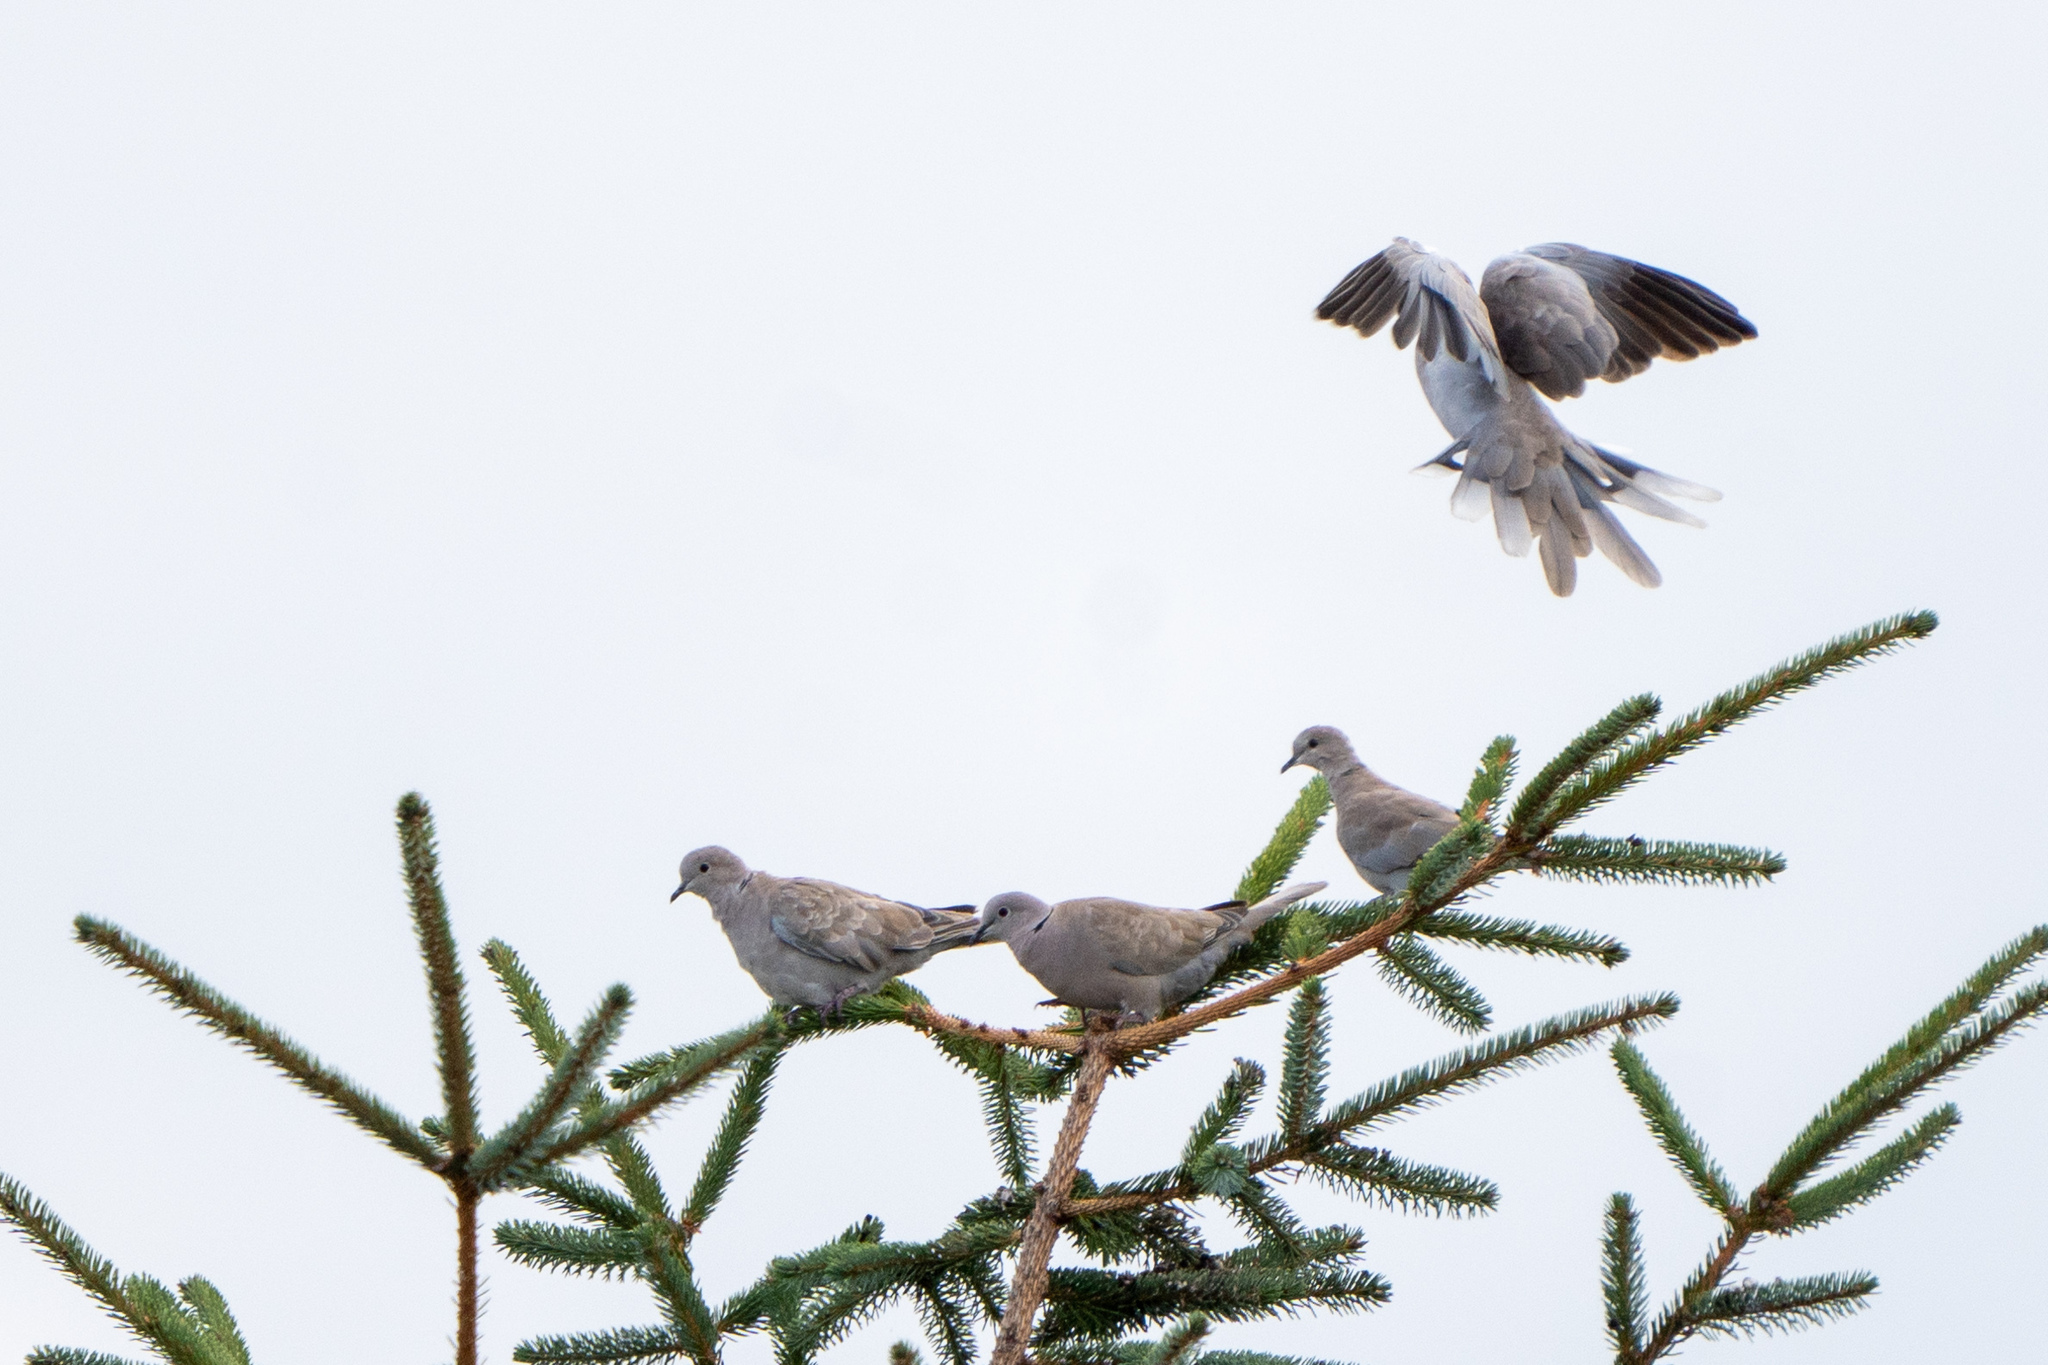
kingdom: Animalia
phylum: Chordata
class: Aves
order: Columbiformes
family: Columbidae
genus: Streptopelia
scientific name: Streptopelia decaocto
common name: Eurasian collared dove
